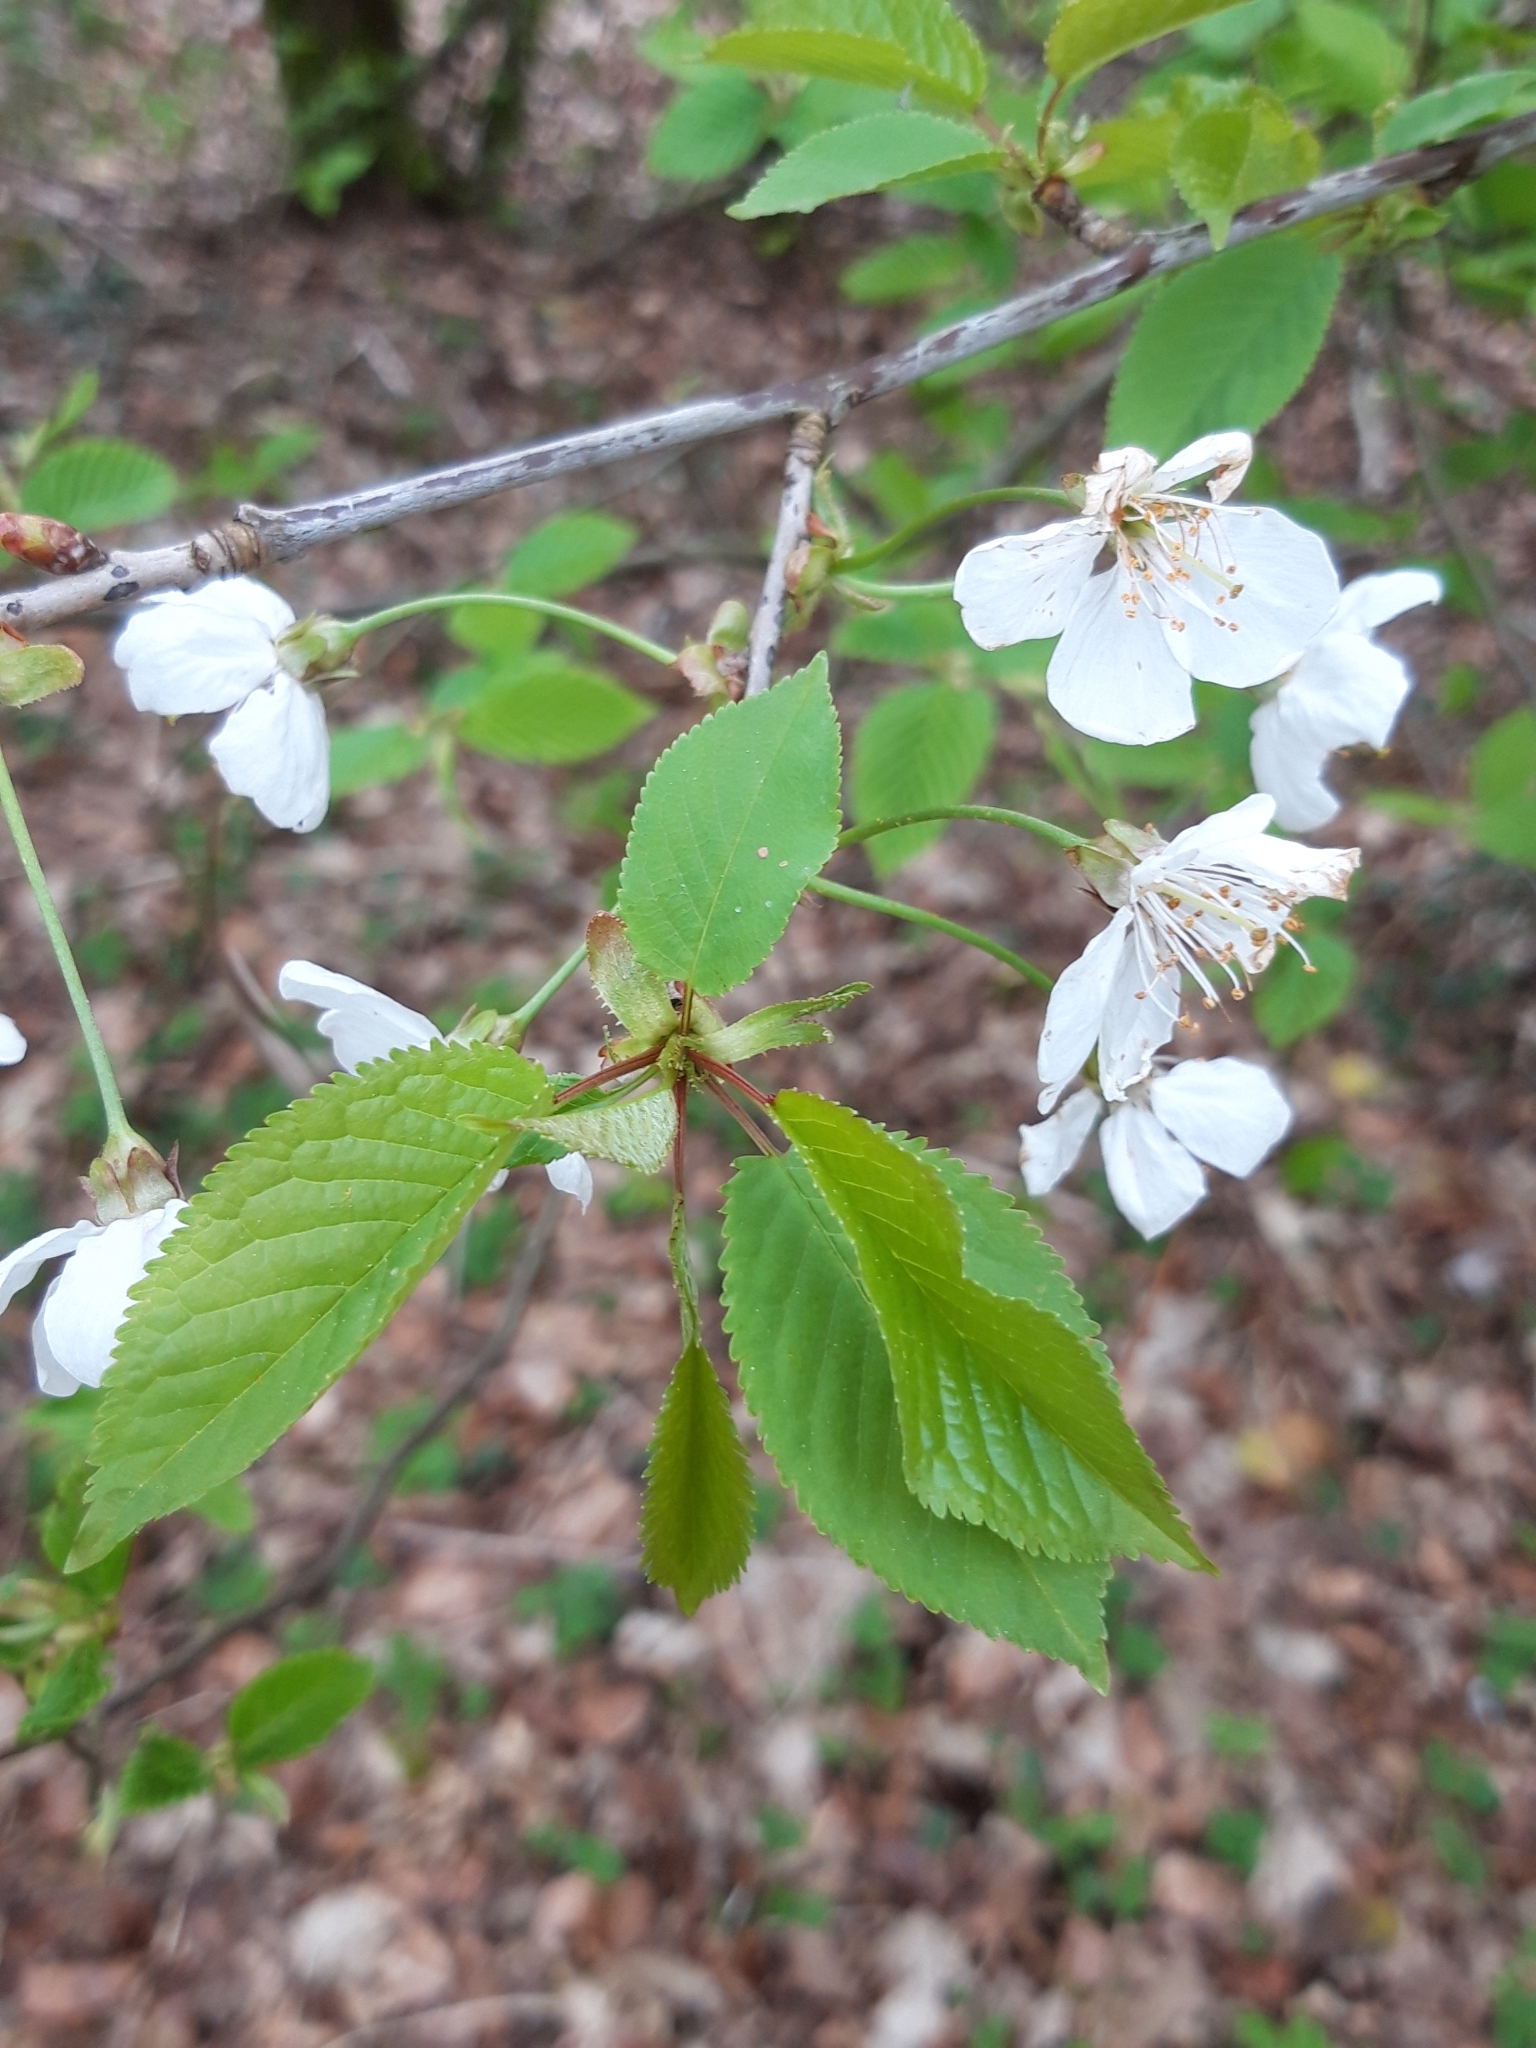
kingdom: Plantae
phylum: Tracheophyta
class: Magnoliopsida
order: Rosales
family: Rosaceae
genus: Prunus
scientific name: Prunus avium
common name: Sweet cherry
